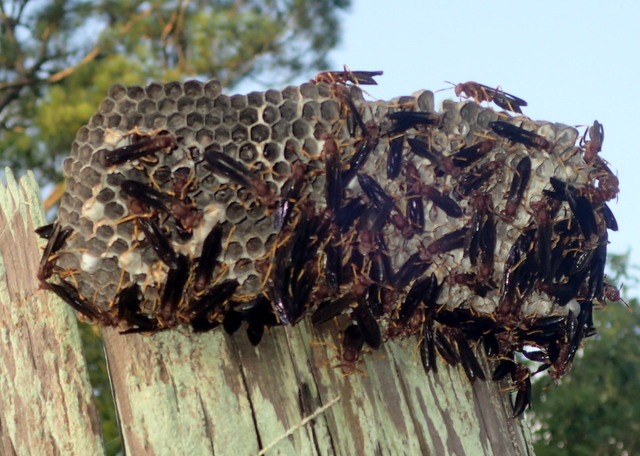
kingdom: Animalia
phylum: Arthropoda
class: Insecta
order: Hymenoptera
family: Eumenidae
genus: Polistes
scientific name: Polistes annularis
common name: Ringed paper wasp
